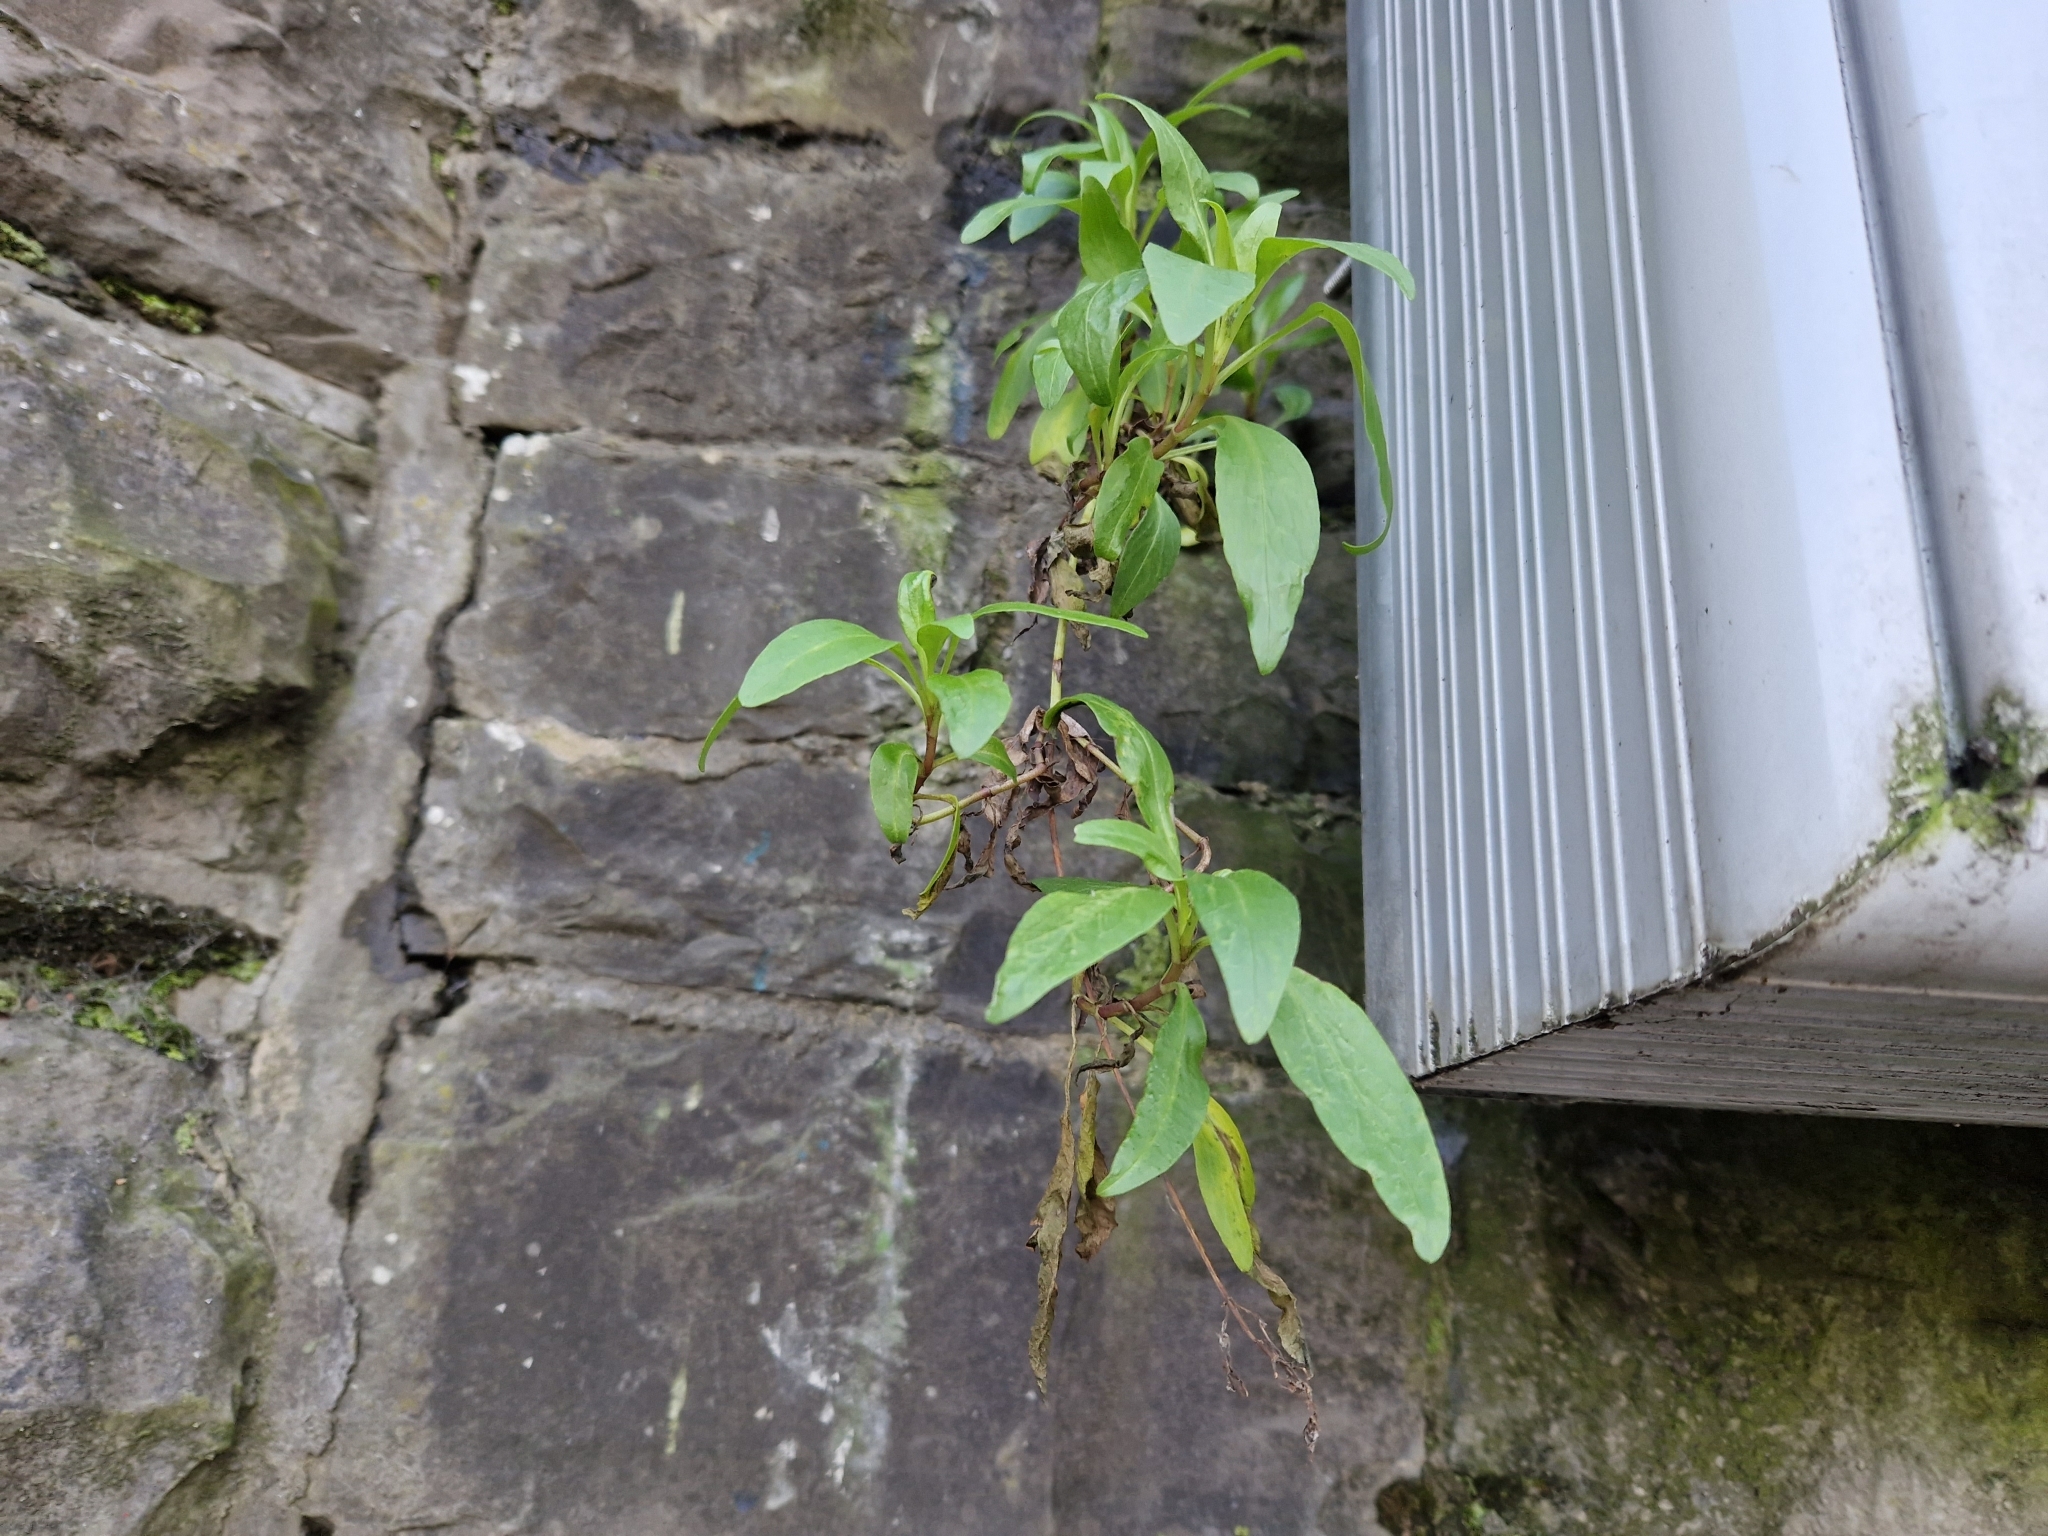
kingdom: Plantae
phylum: Tracheophyta
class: Magnoliopsida
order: Dipsacales
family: Caprifoliaceae
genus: Centranthus
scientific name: Centranthus ruber
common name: Red valerian
